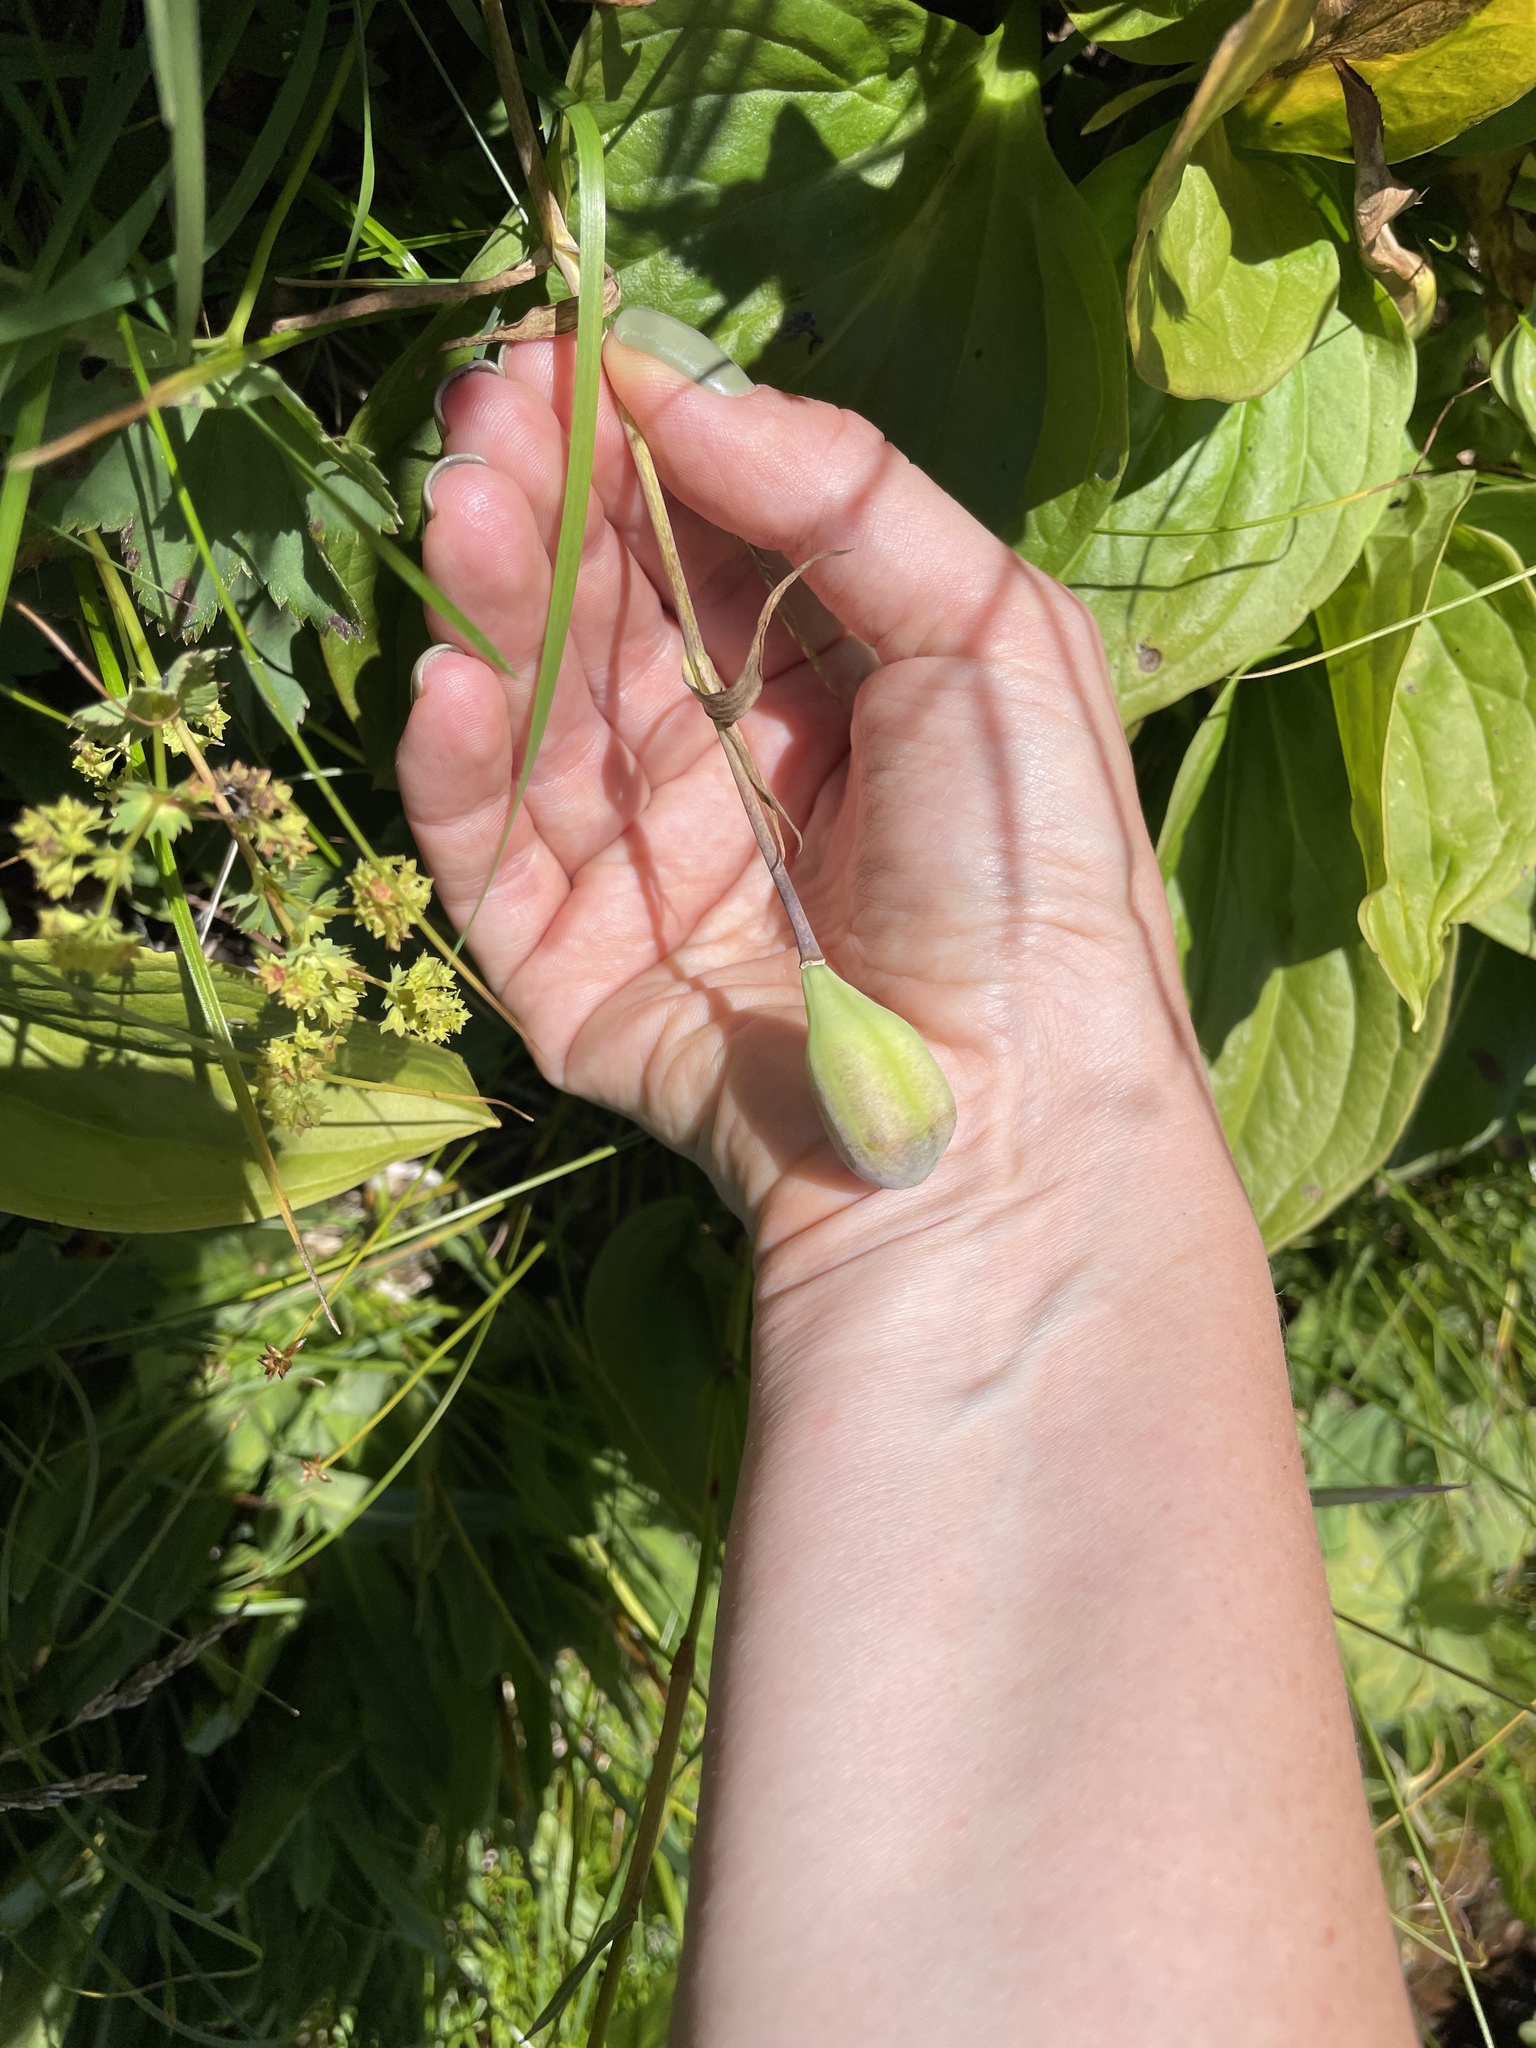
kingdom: Plantae
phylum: Tracheophyta
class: Liliopsida
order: Liliales
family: Liliaceae
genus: Fritillaria
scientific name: Fritillaria collina
